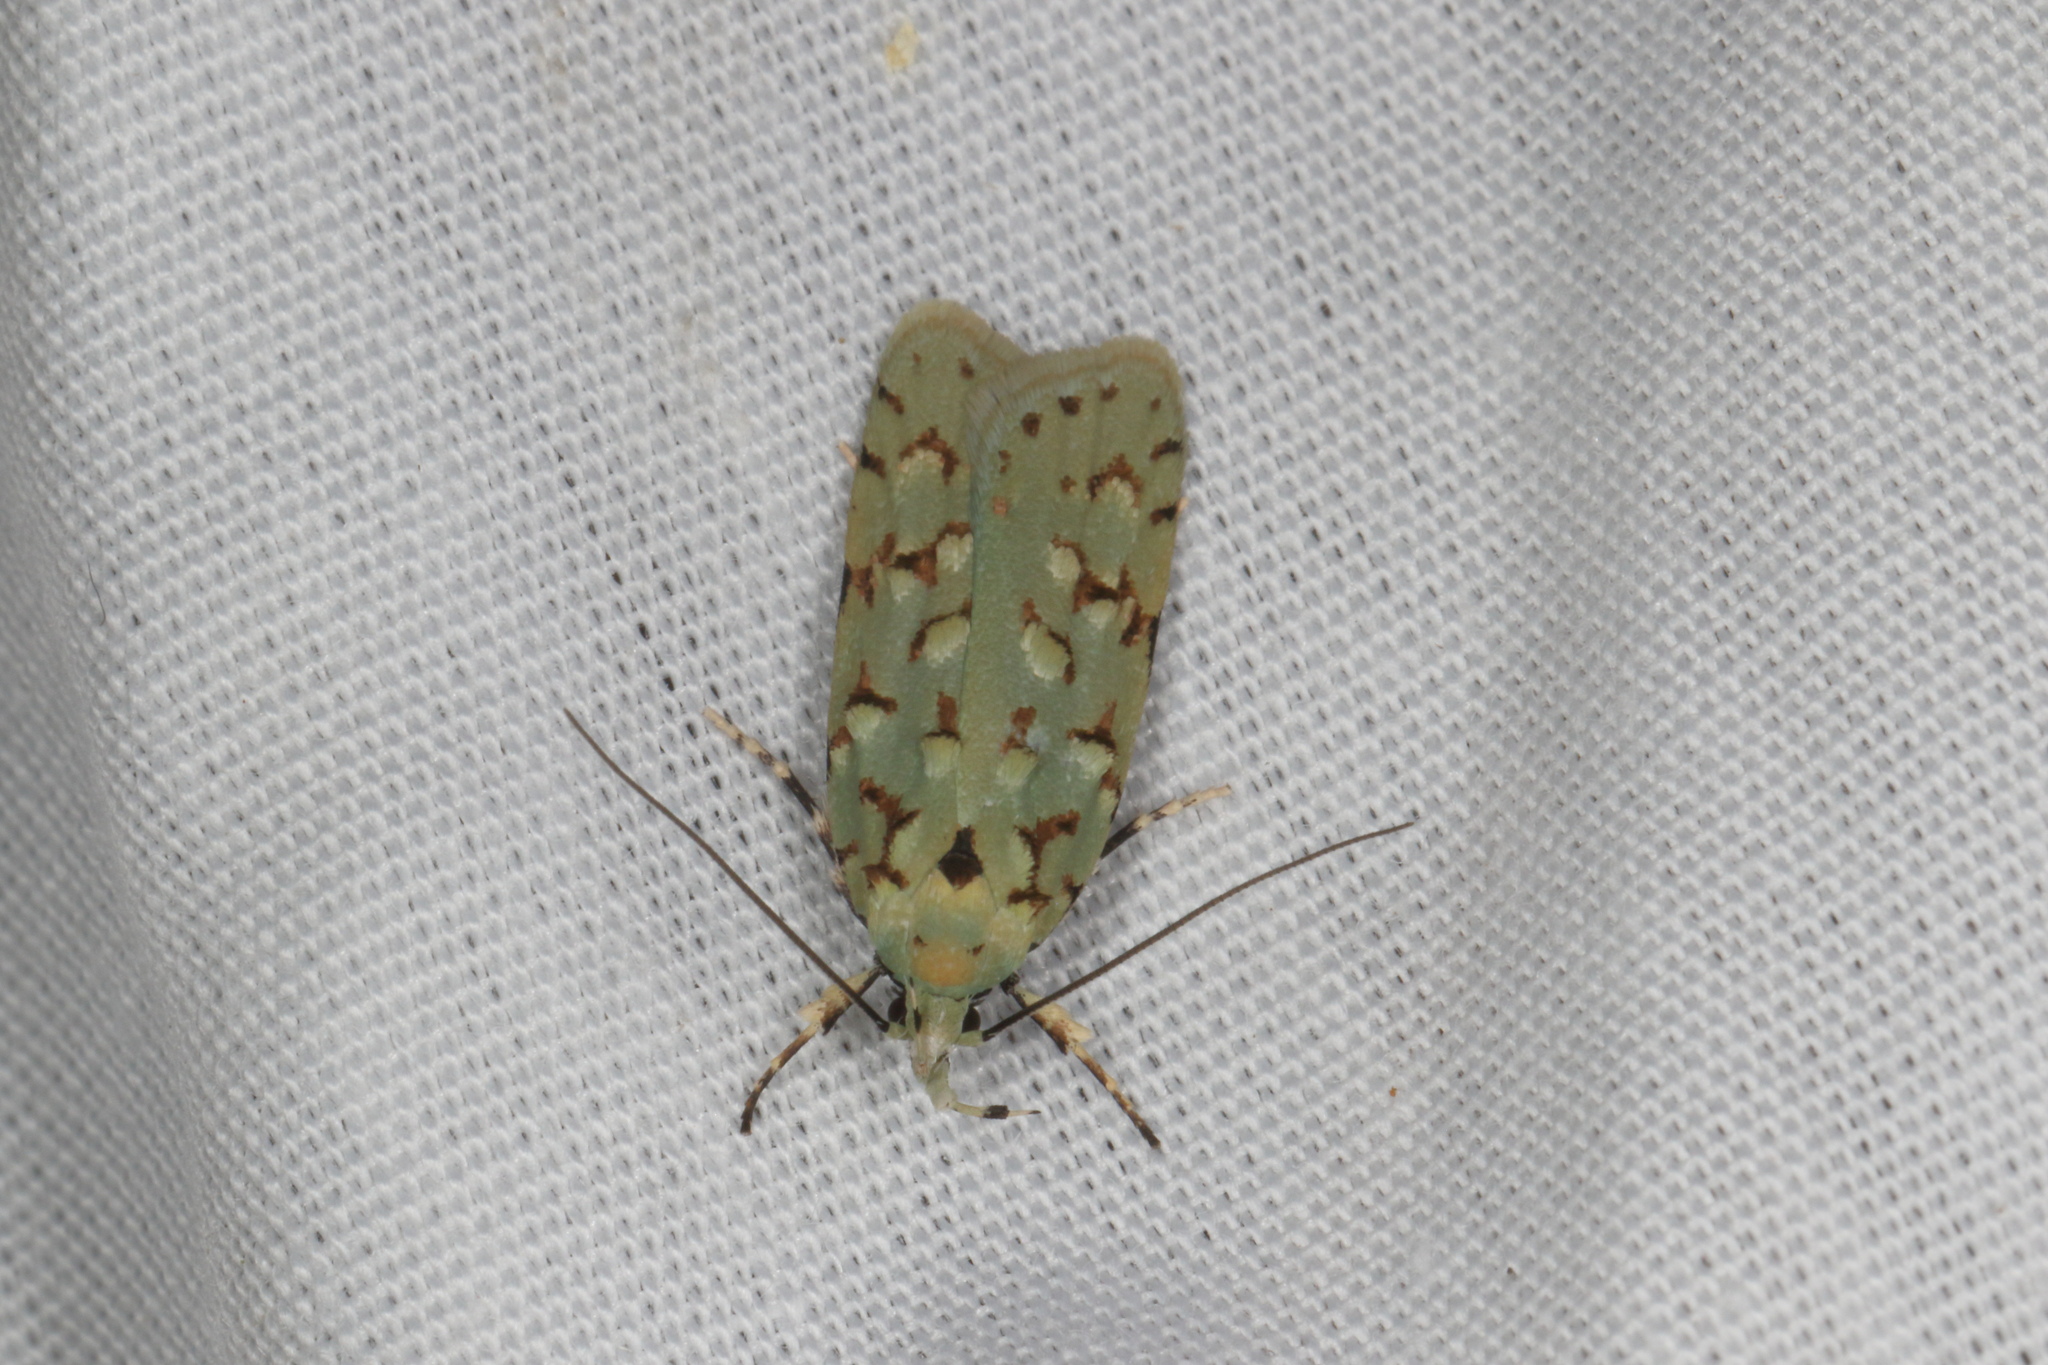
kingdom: Animalia
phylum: Arthropoda
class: Insecta
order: Lepidoptera
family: Oecophoridae
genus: Izatha
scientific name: Izatha peroneanella
